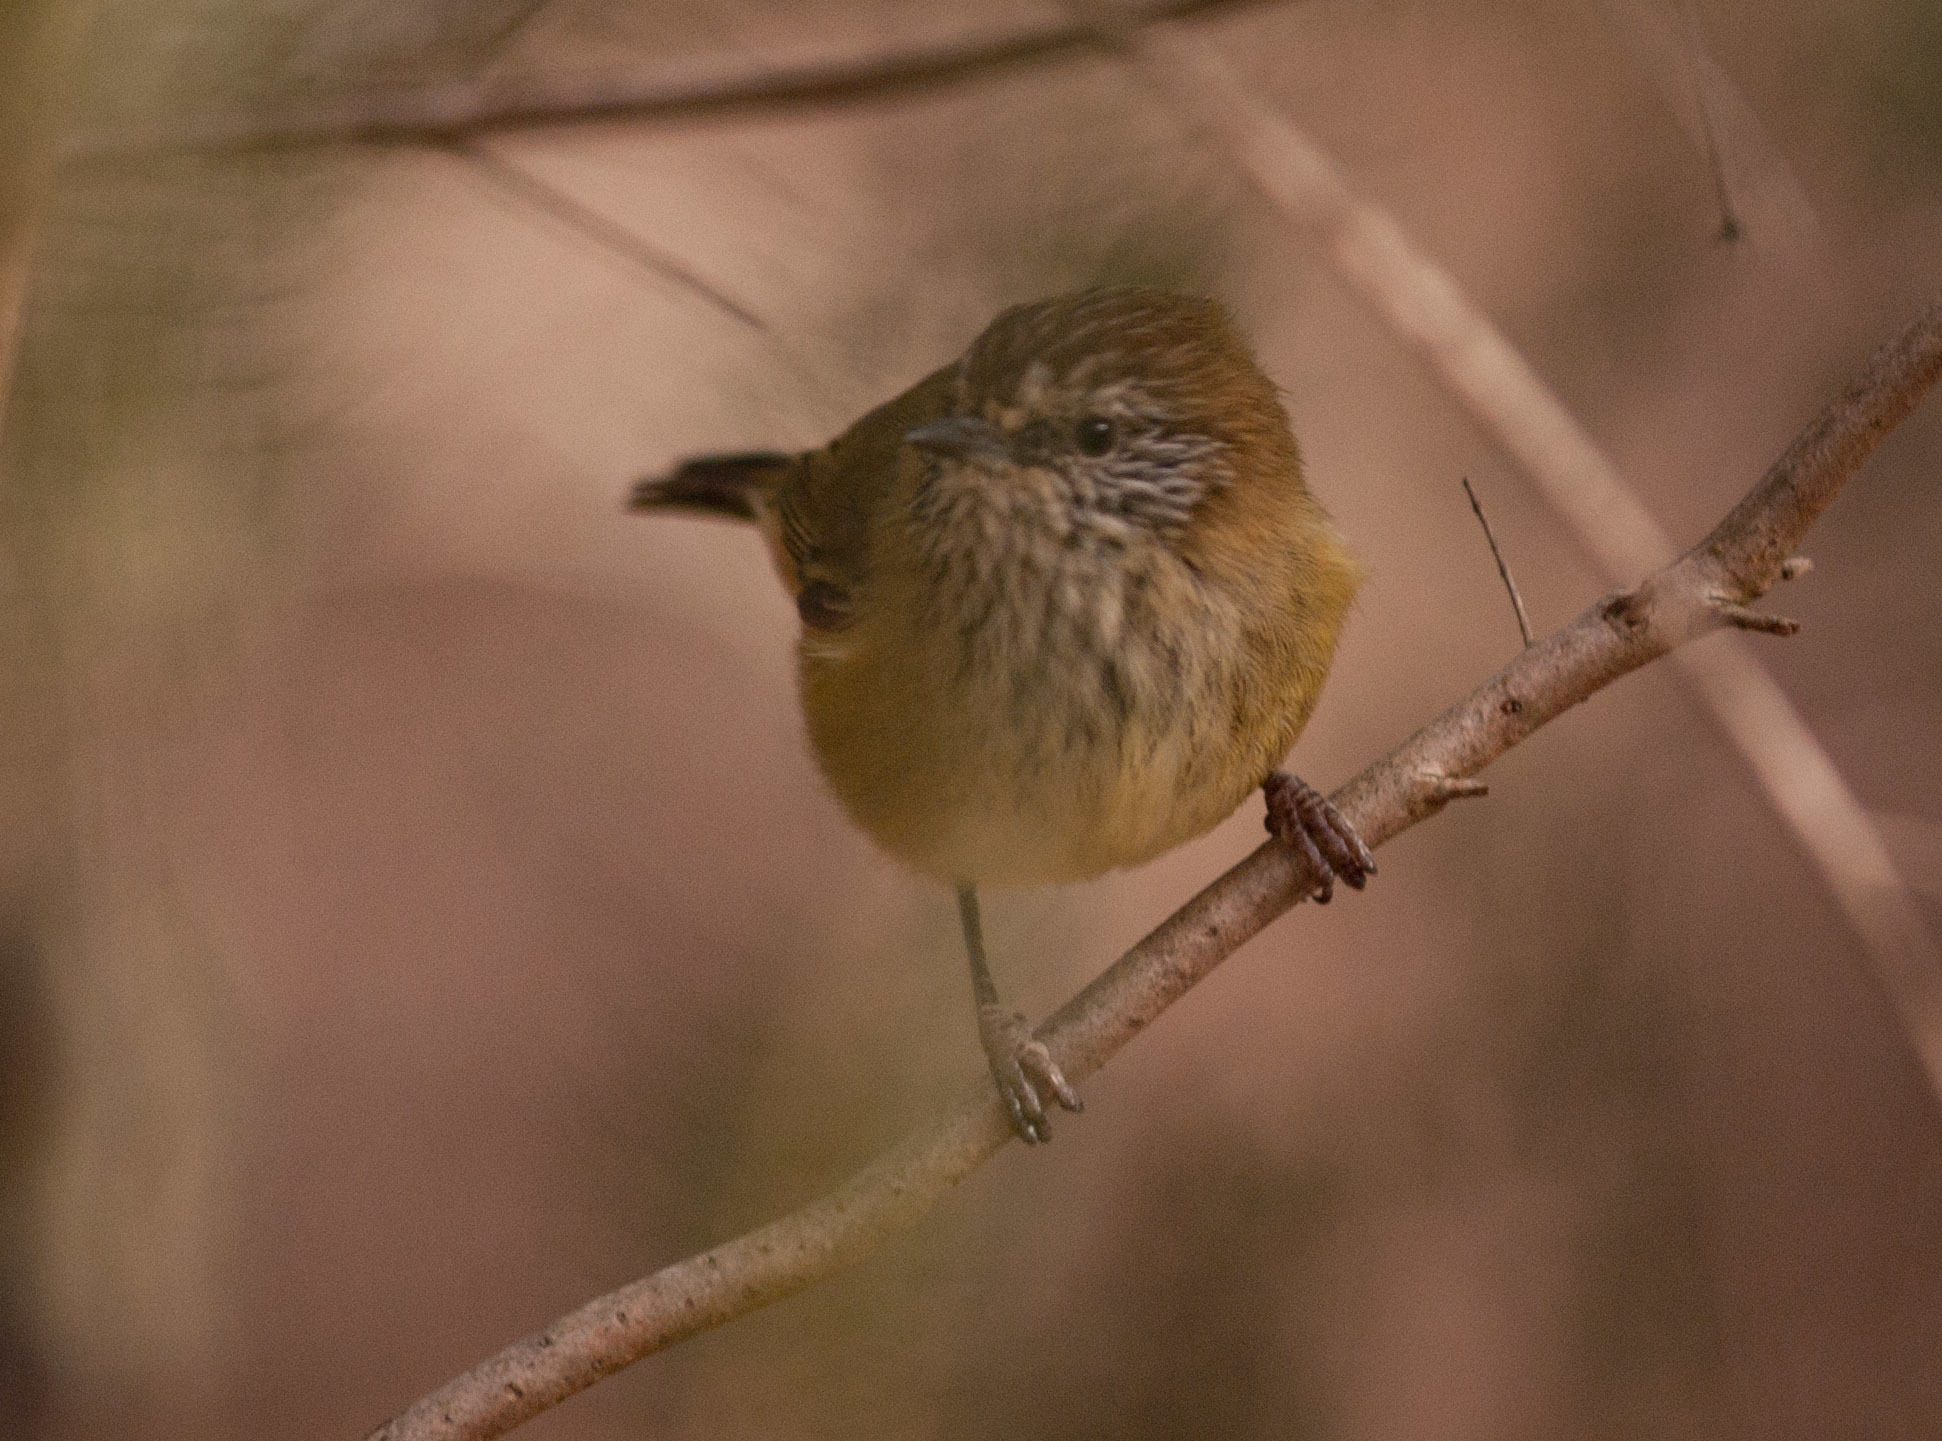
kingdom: Animalia
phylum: Chordata
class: Aves
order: Passeriformes
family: Acanthizidae
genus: Acanthiza
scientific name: Acanthiza lineata
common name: Striated thornbill
